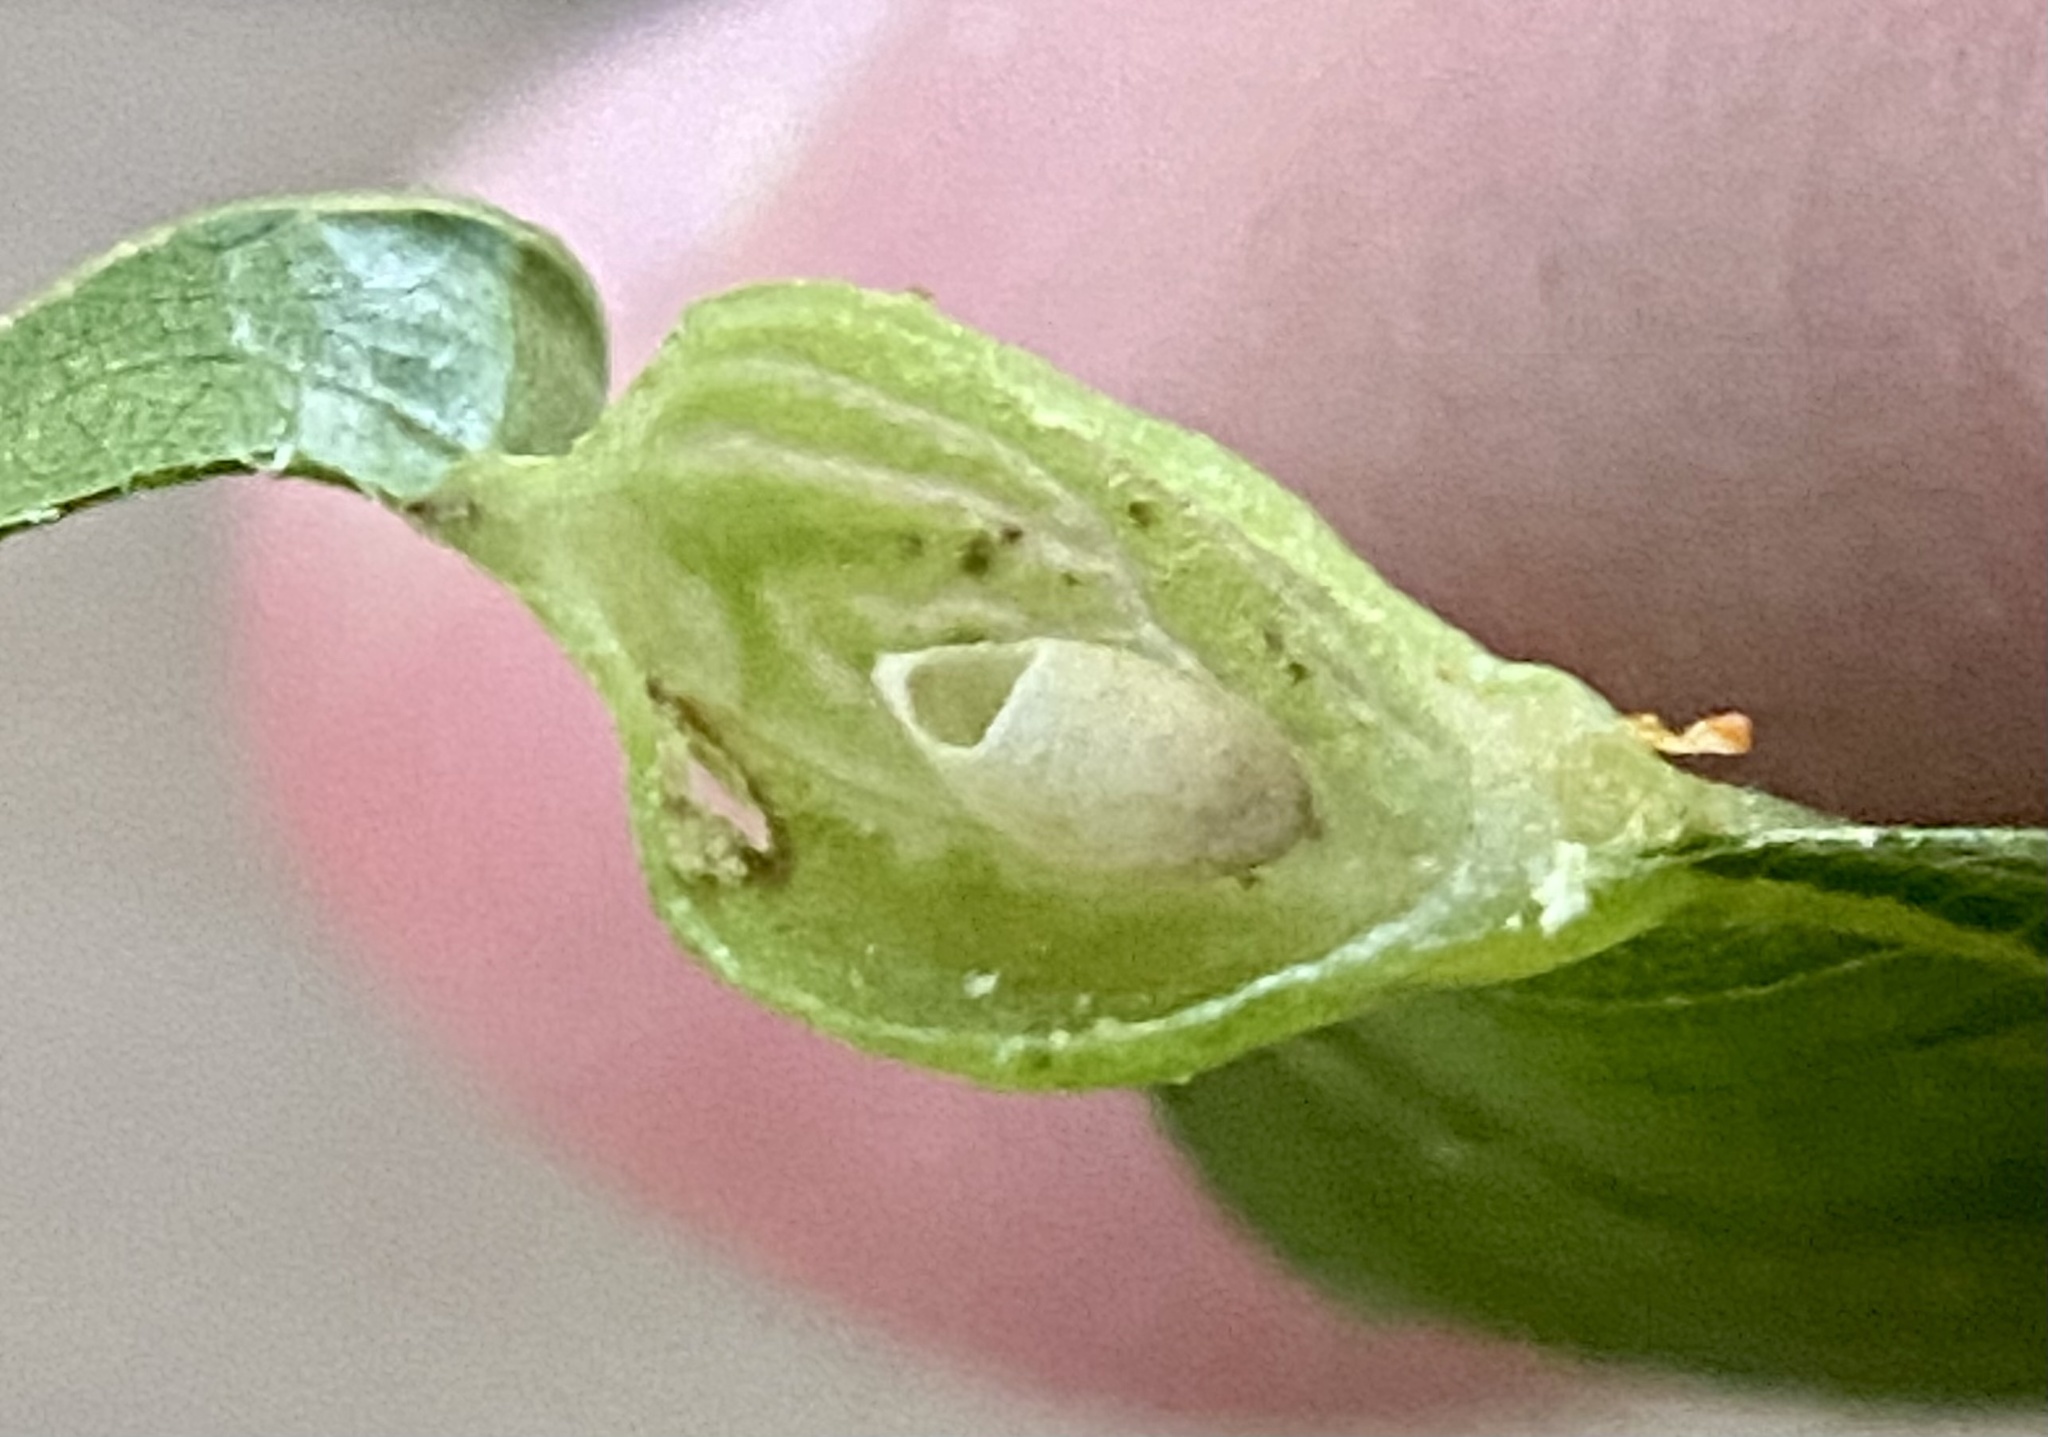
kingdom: Animalia
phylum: Arthropoda
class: Insecta
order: Hymenoptera
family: Cynipidae
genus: Dryocosmus
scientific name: Dryocosmus
